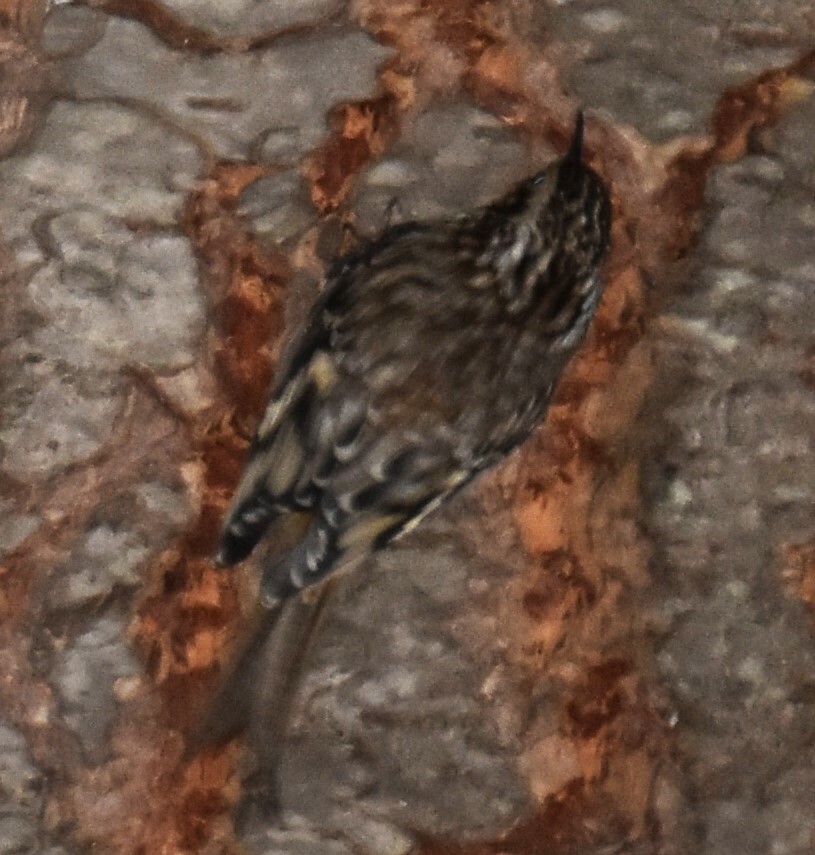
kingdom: Animalia
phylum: Chordata
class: Aves
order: Passeriformes
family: Certhiidae
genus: Certhia
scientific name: Certhia americana
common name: Brown creeper
